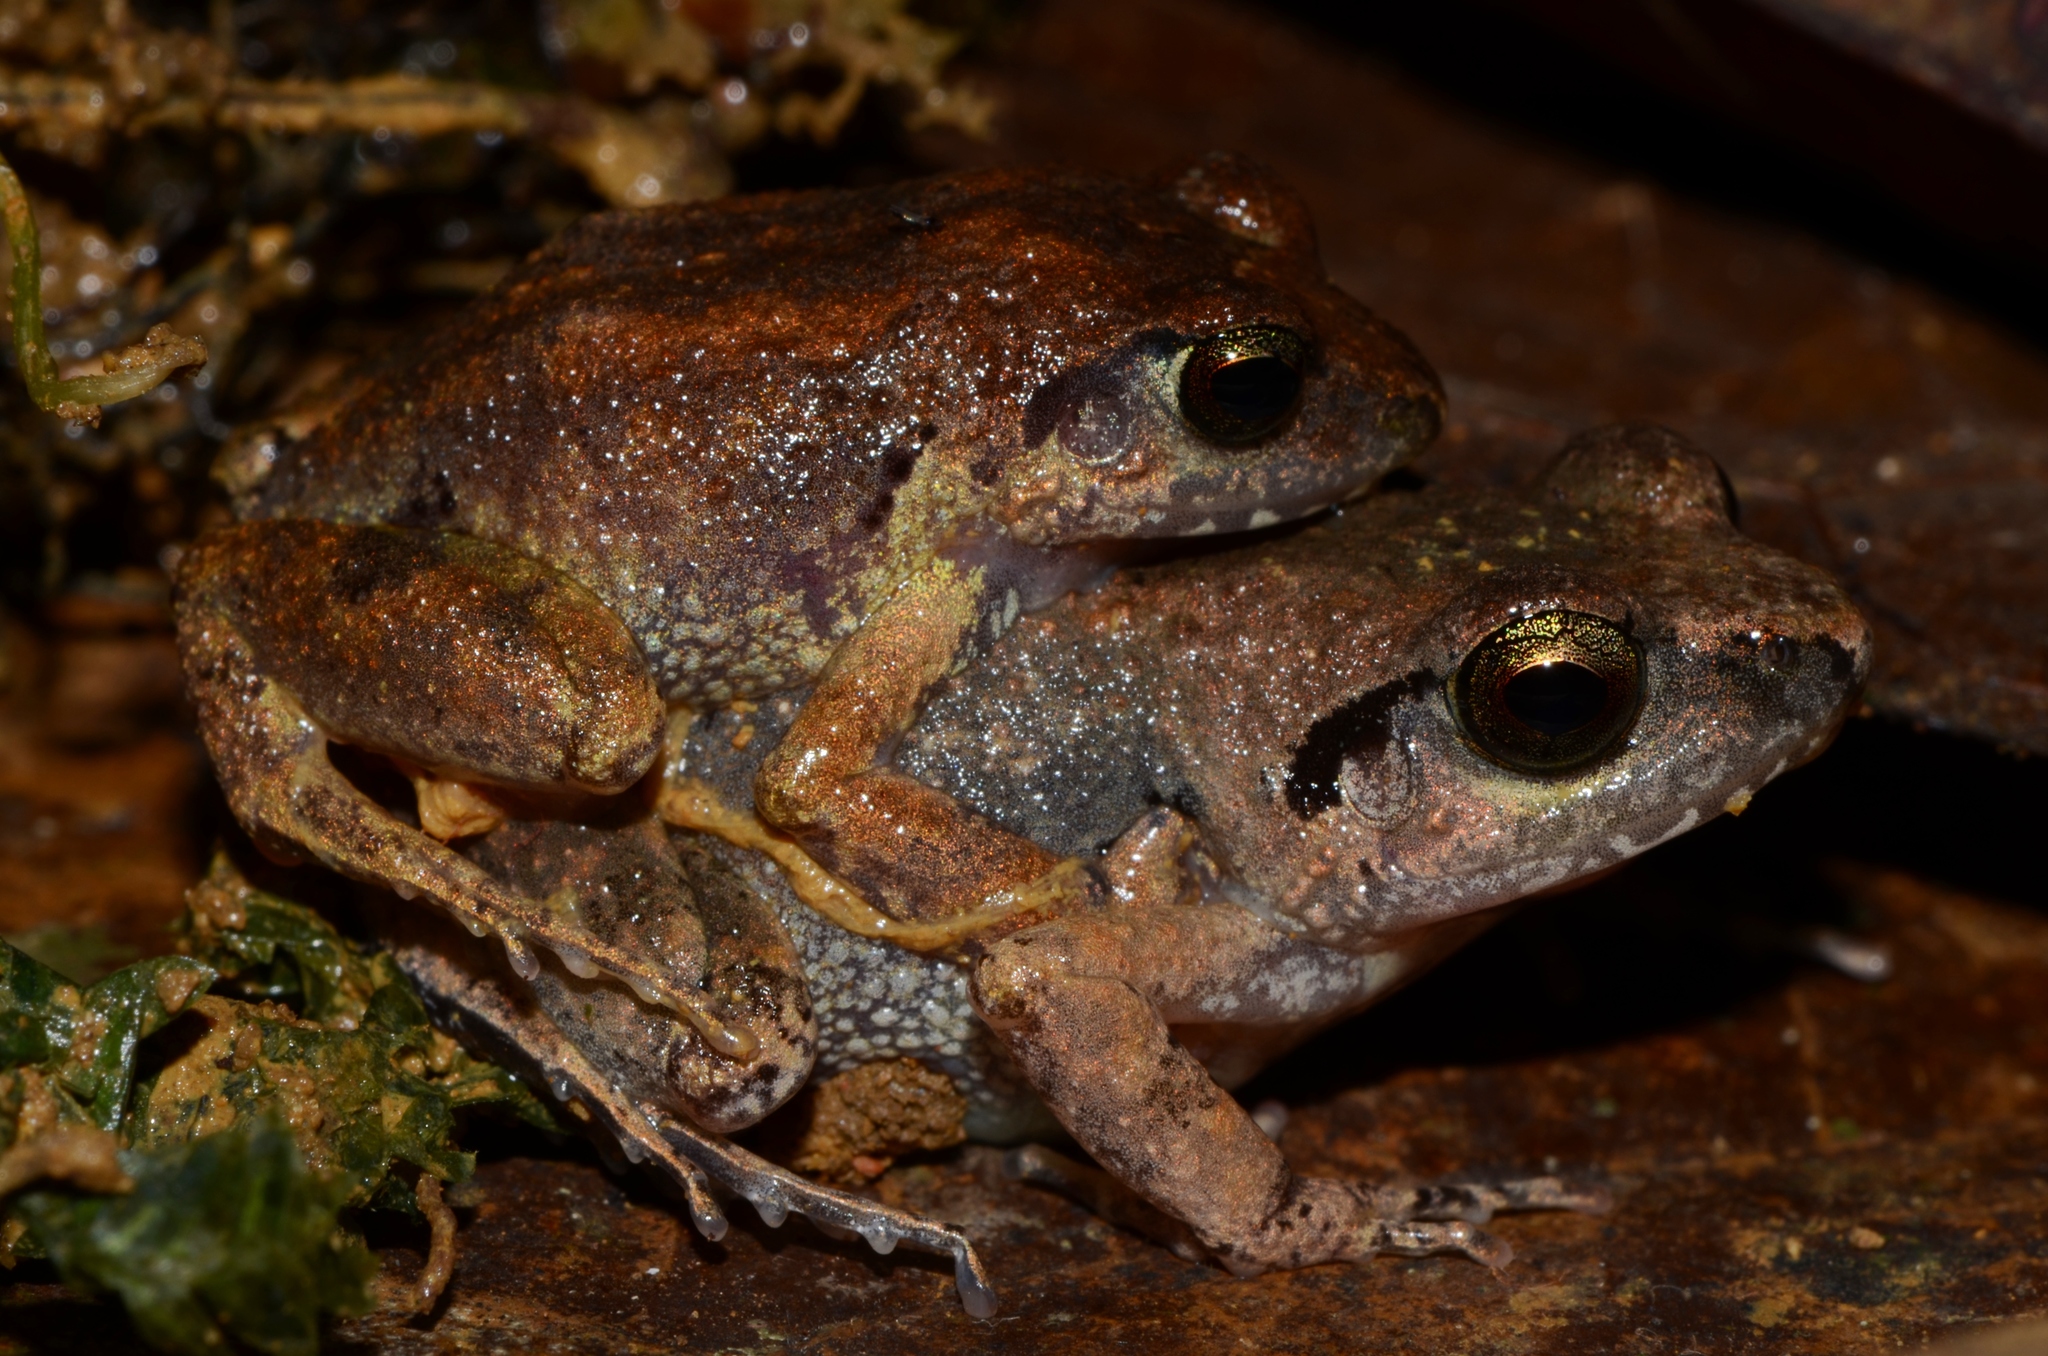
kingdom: Animalia
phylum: Chordata
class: Amphibia
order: Anura
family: Arthroleptidae
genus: Arthroleptis
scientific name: Arthroleptis poecilonotus
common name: West african screeching frog
